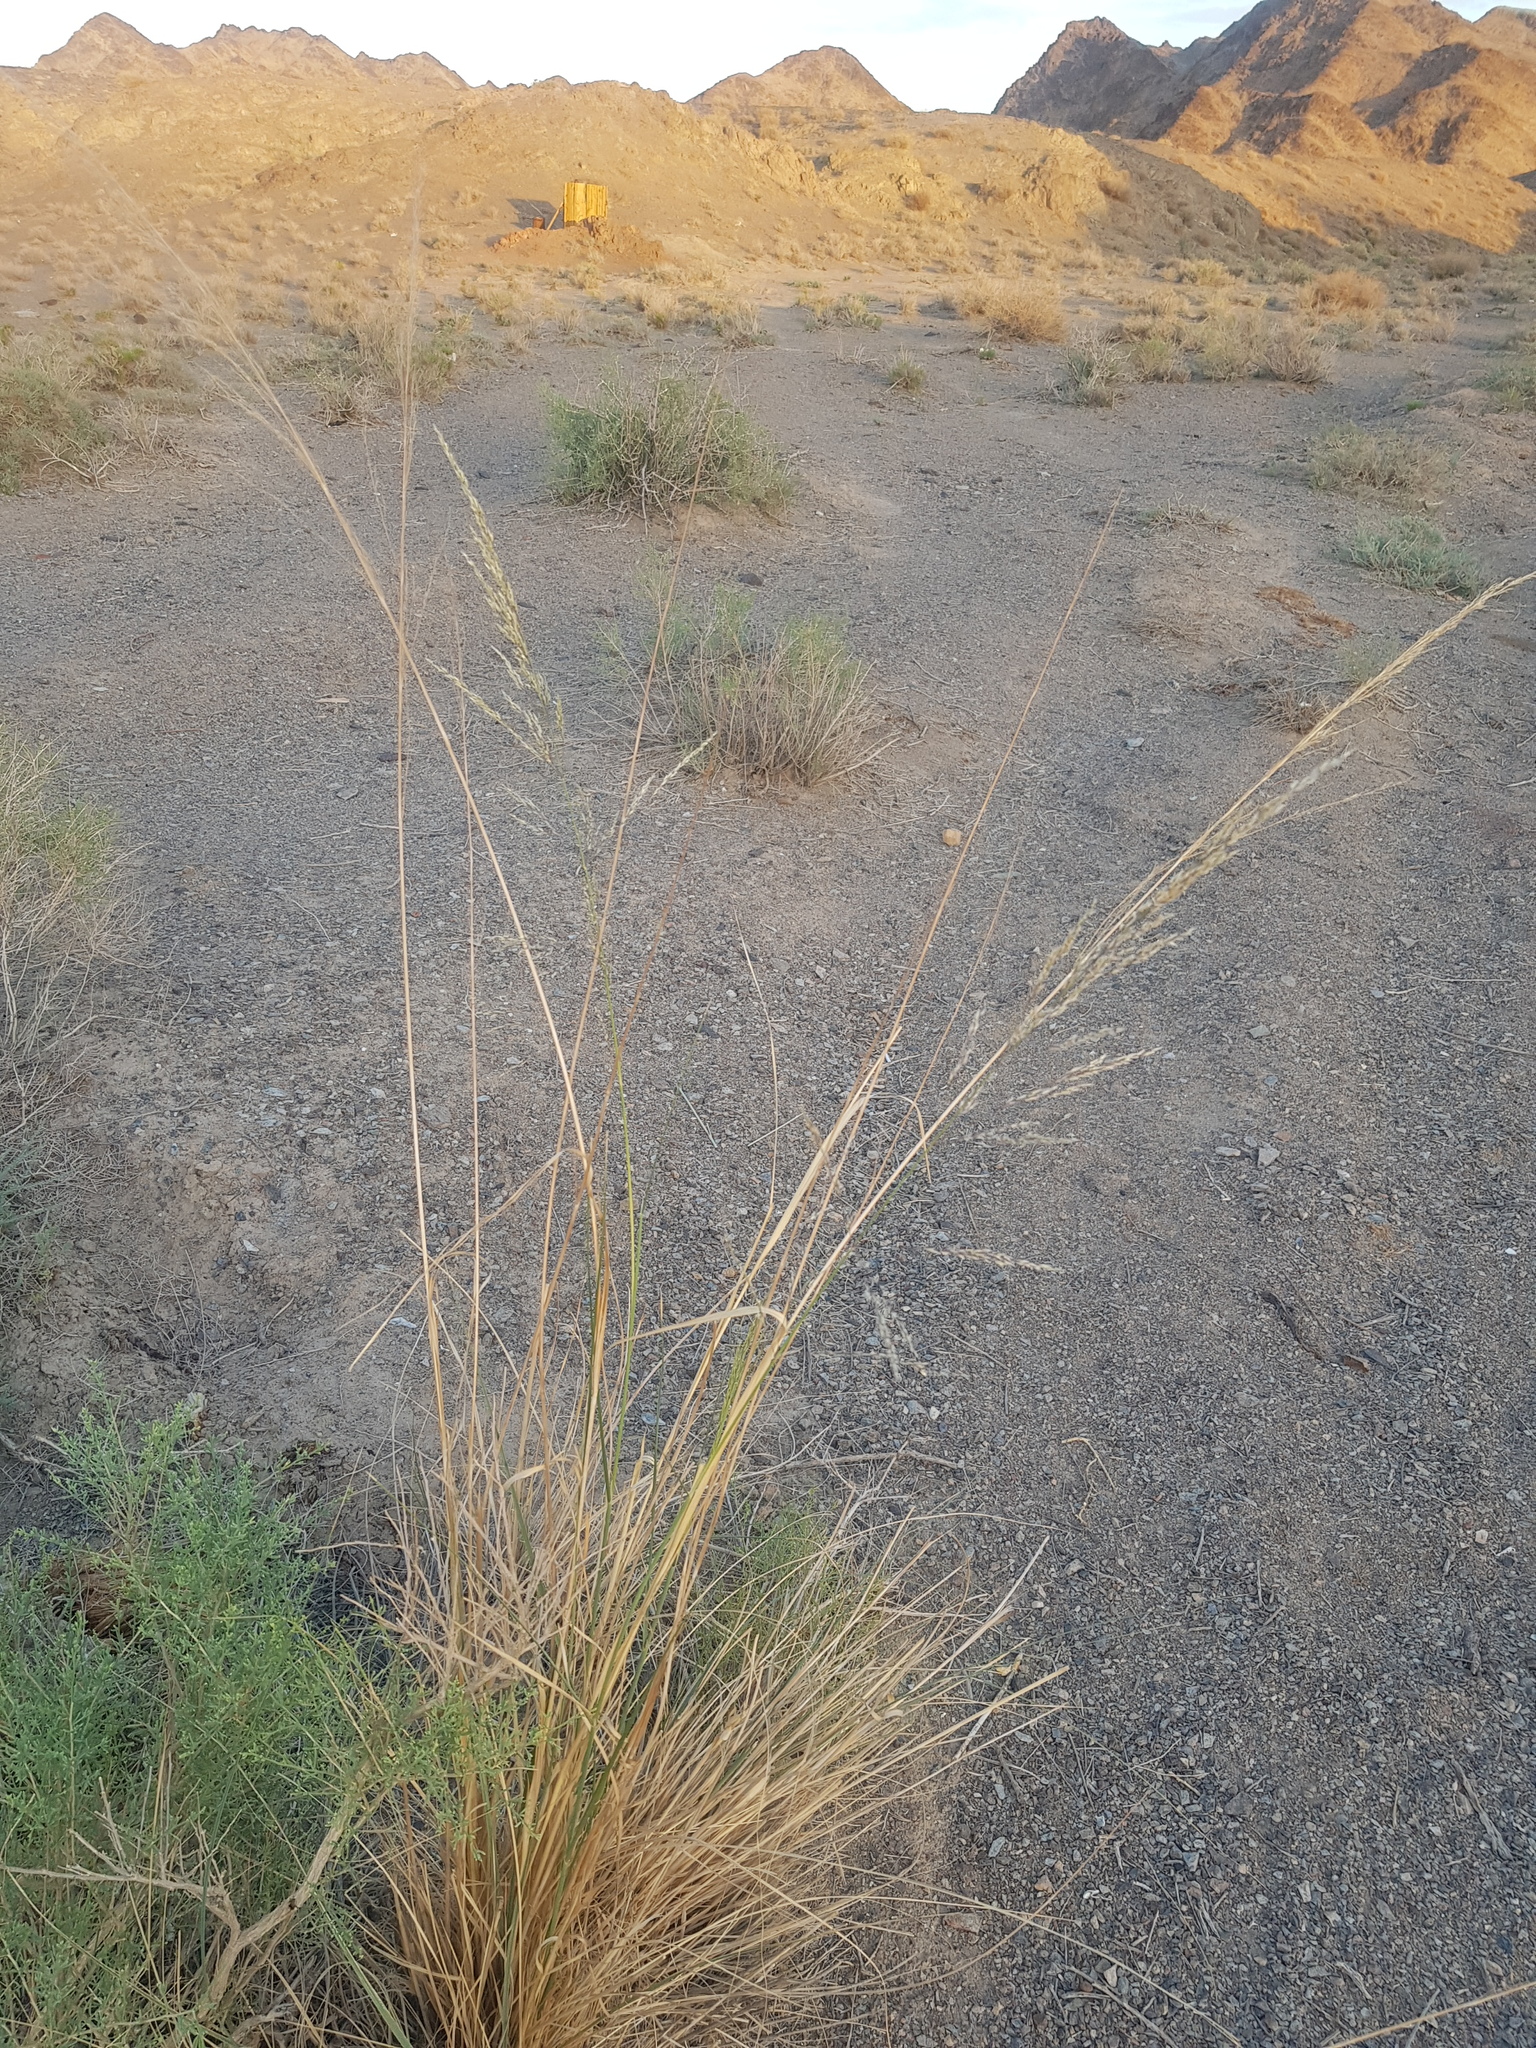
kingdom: Plantae
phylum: Tracheophyta
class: Liliopsida
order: Poales
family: Poaceae
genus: Neotrinia
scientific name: Neotrinia splendens
